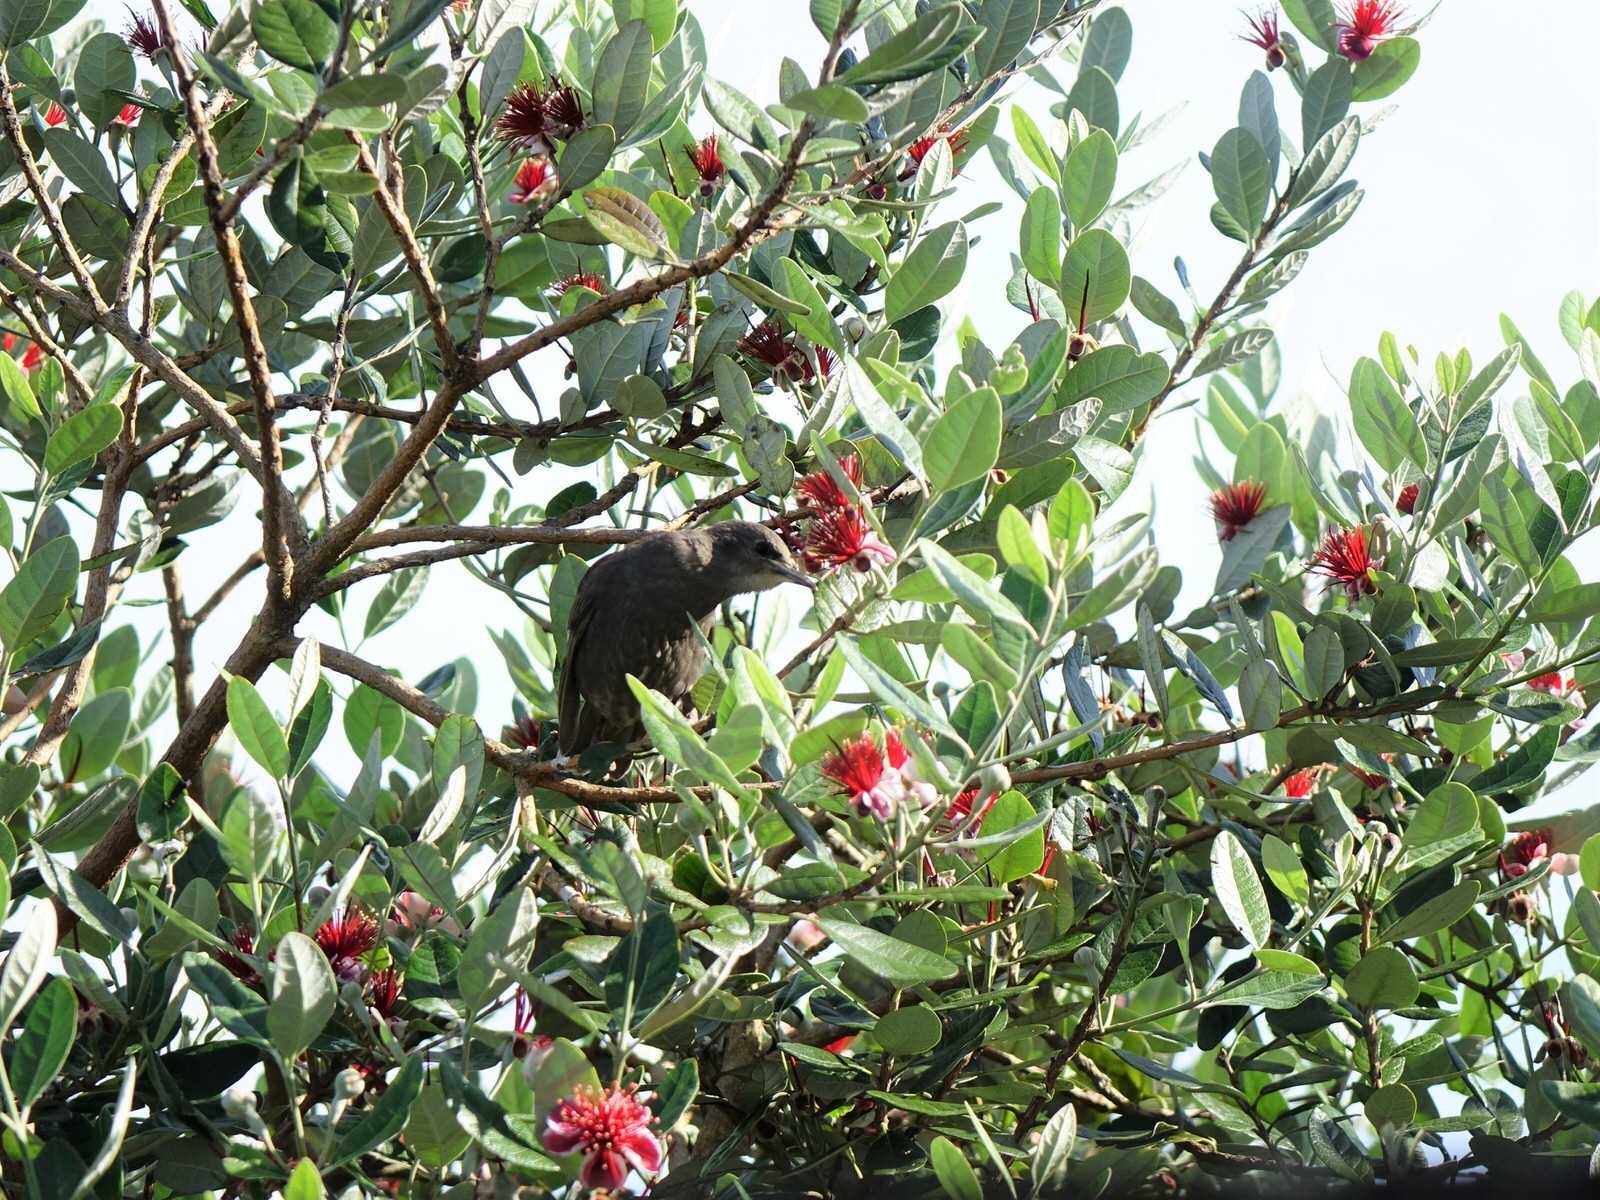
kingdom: Animalia
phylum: Chordata
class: Aves
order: Passeriformes
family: Sturnidae
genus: Sturnus
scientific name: Sturnus vulgaris
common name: Common starling
